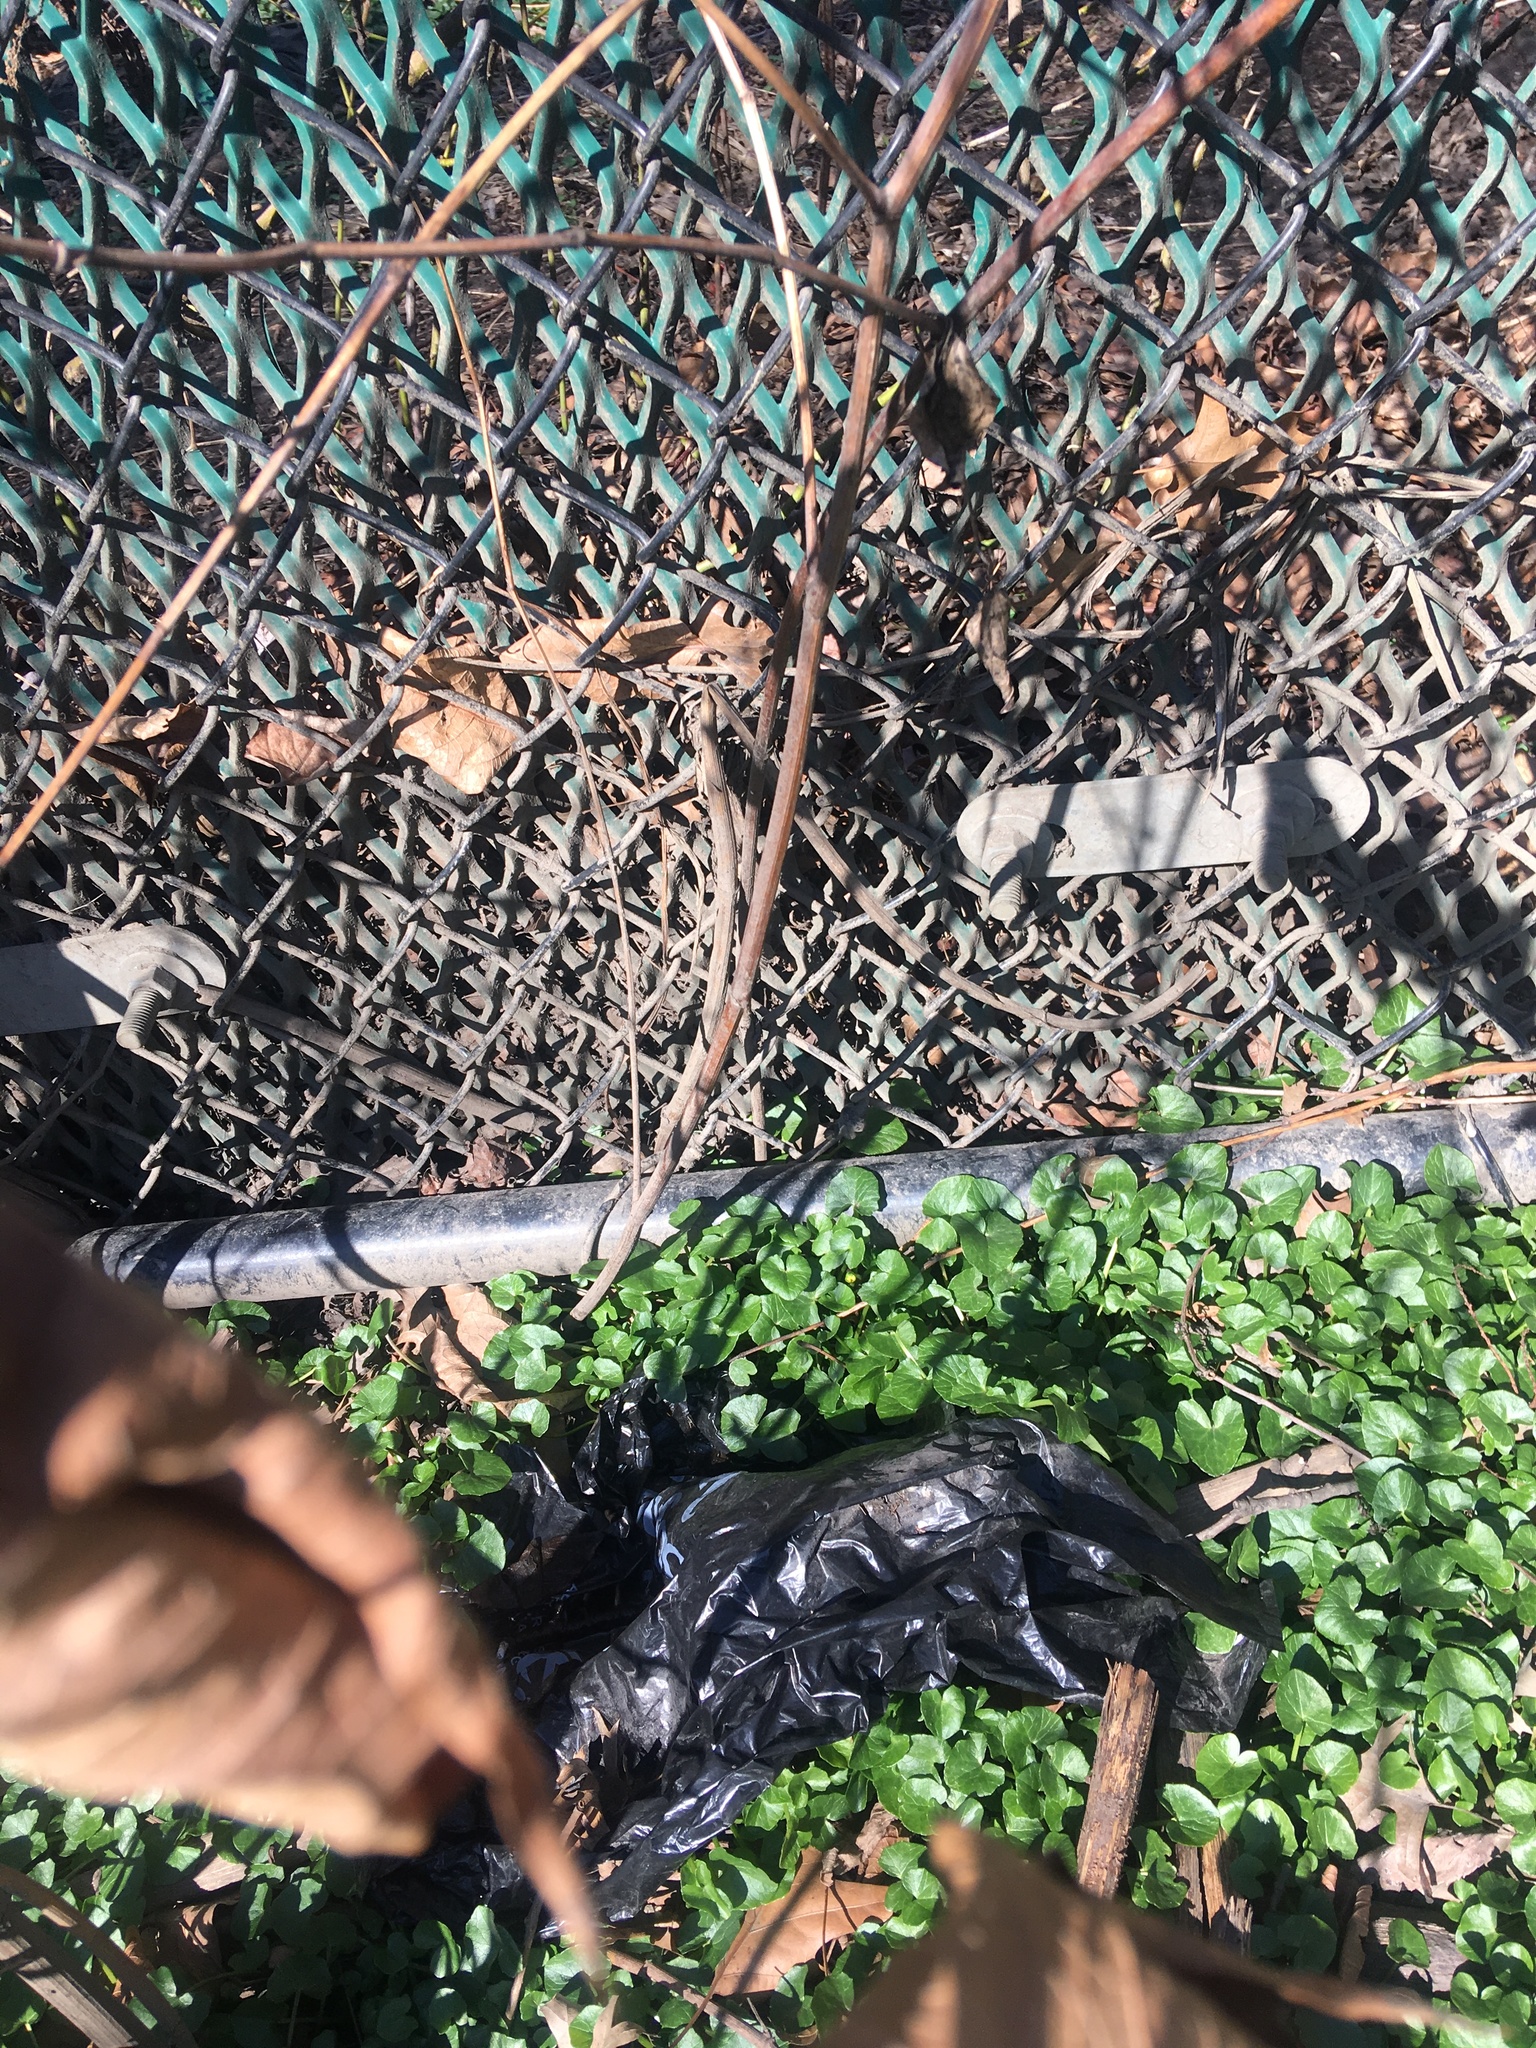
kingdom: Plantae
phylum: Tracheophyta
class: Magnoliopsida
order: Ranunculales
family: Ranunculaceae
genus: Ficaria
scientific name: Ficaria verna
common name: Lesser celandine
